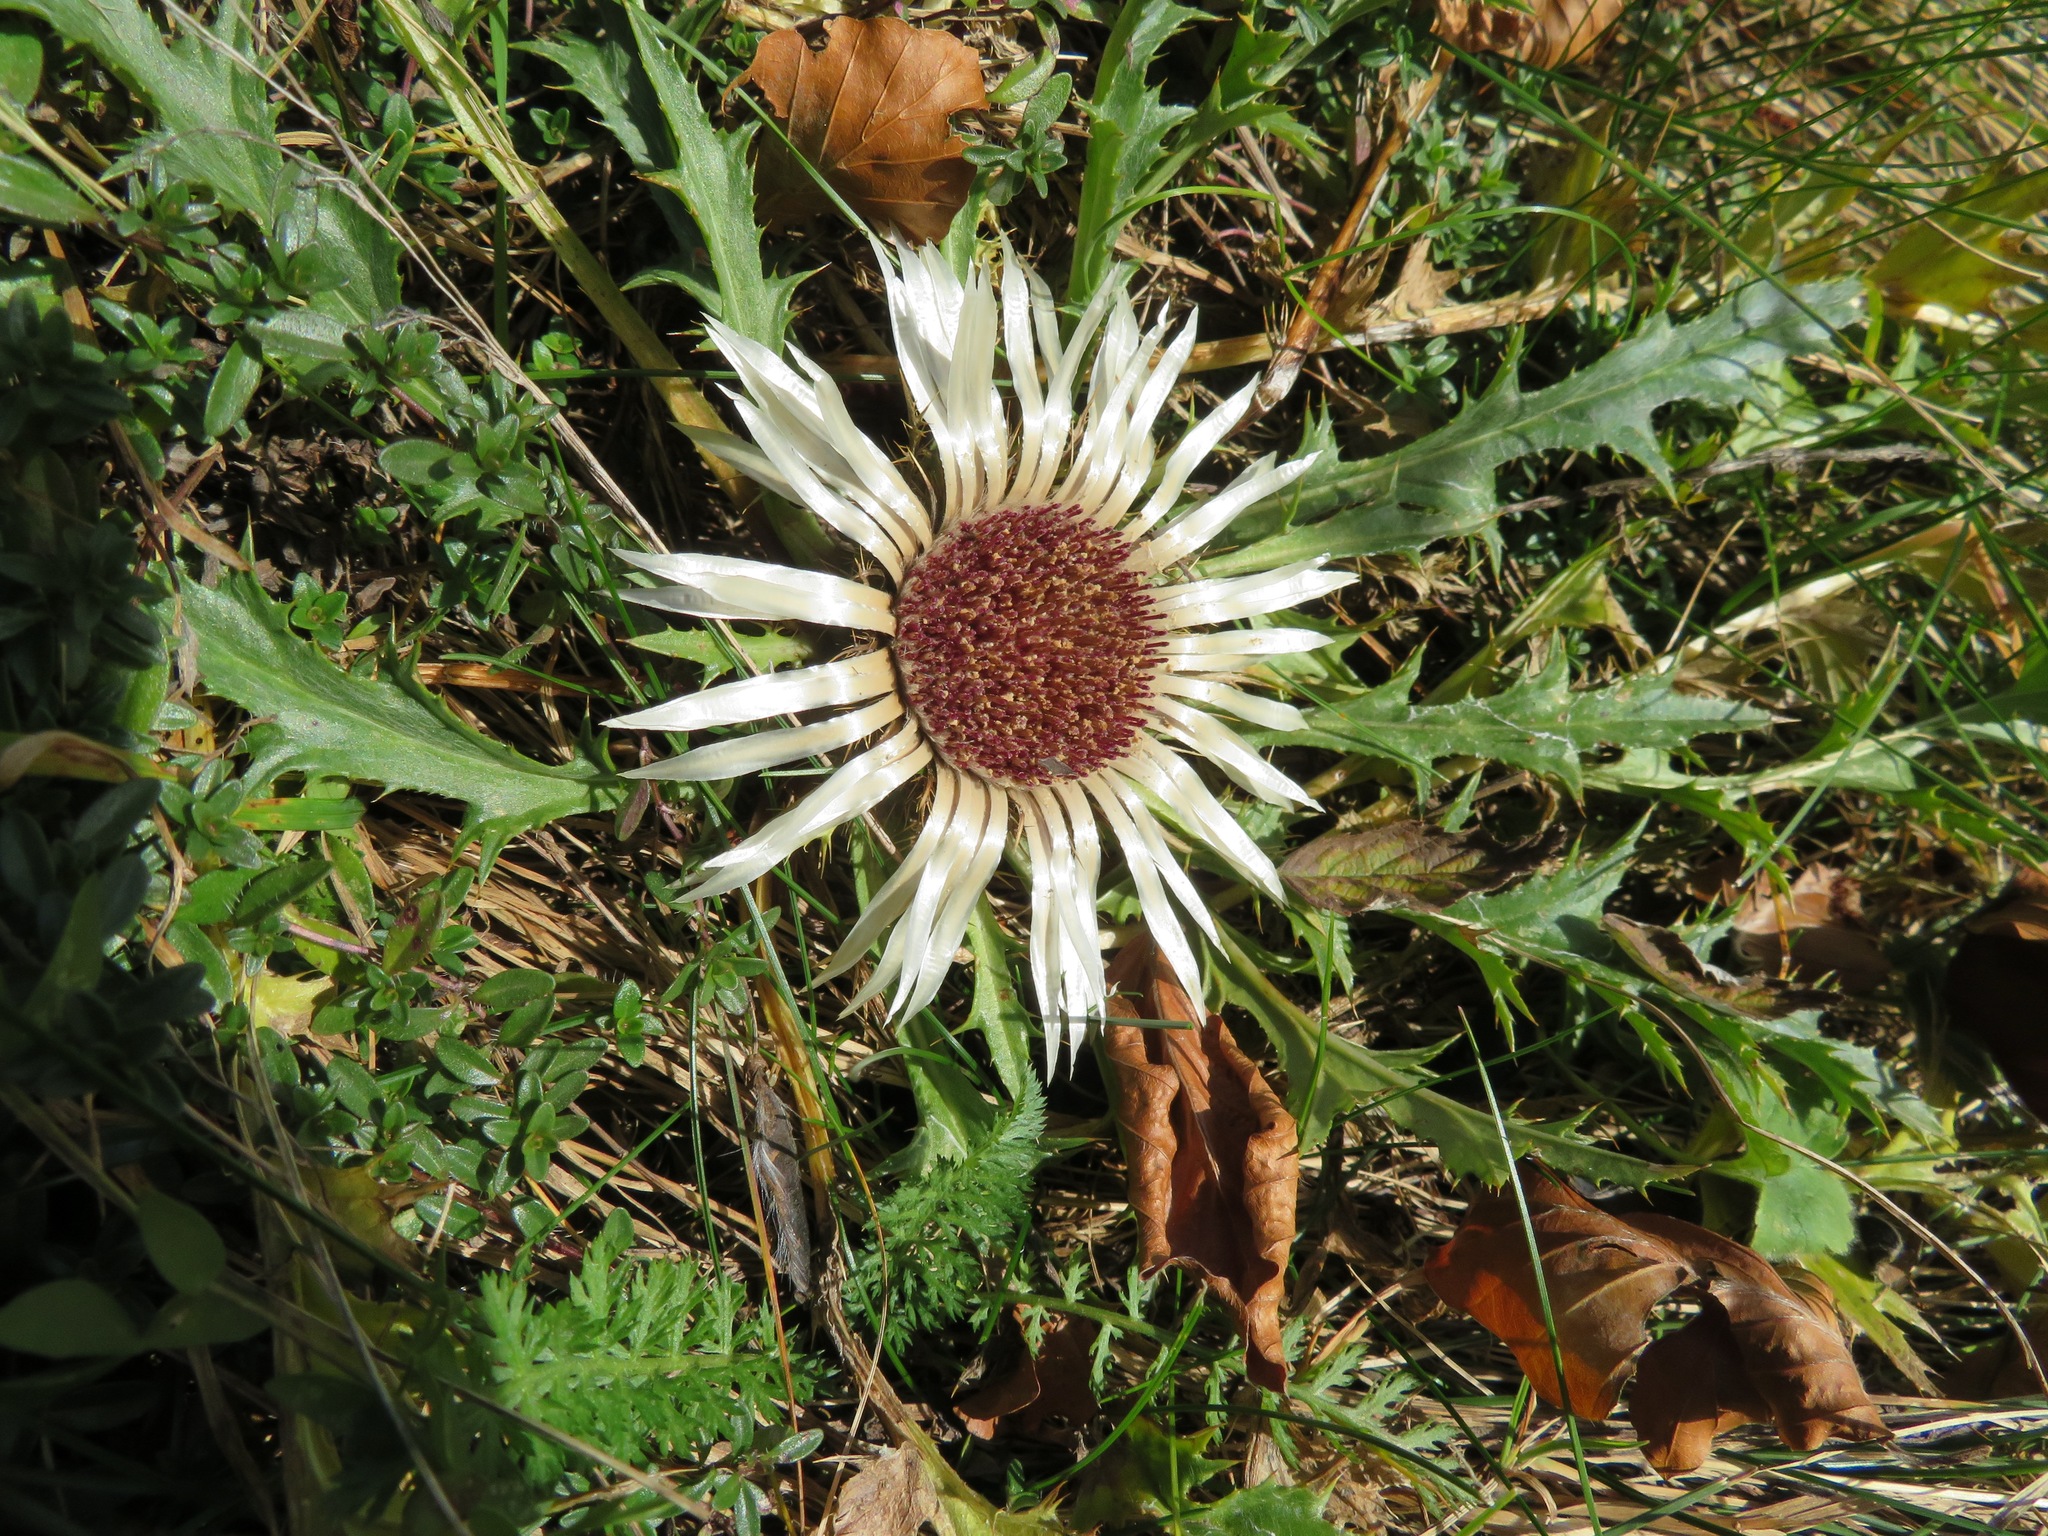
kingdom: Plantae
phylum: Tracheophyta
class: Magnoliopsida
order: Asterales
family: Asteraceae
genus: Carlina
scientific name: Carlina acaulis
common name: Stemless carline thistle
